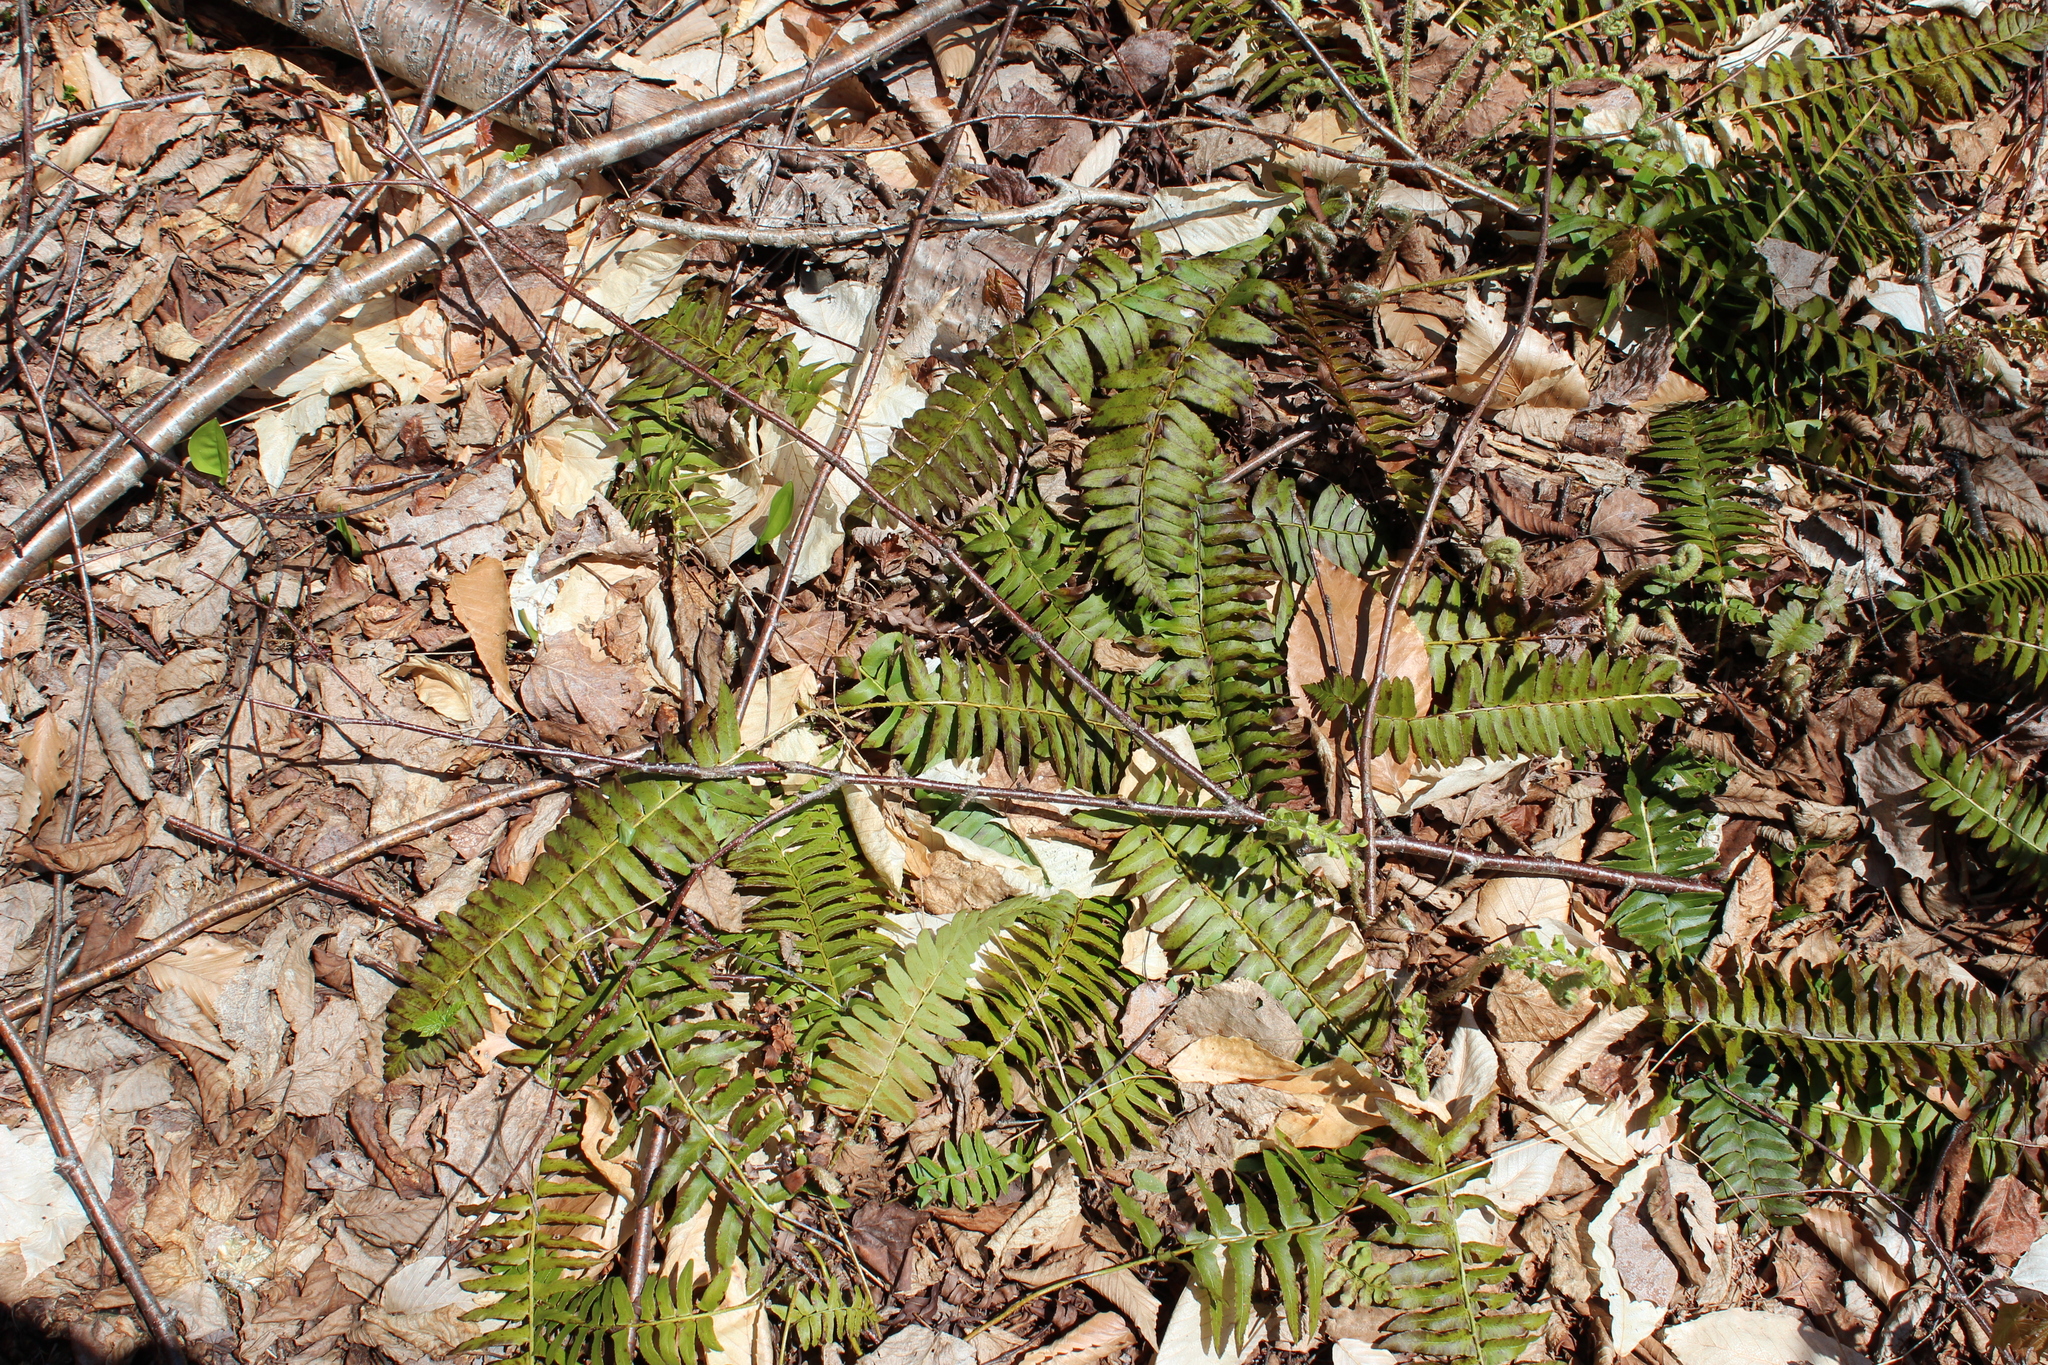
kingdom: Plantae
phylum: Tracheophyta
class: Polypodiopsida
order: Polypodiales
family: Dryopteridaceae
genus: Polystichum
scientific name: Polystichum acrostichoides
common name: Christmas fern
